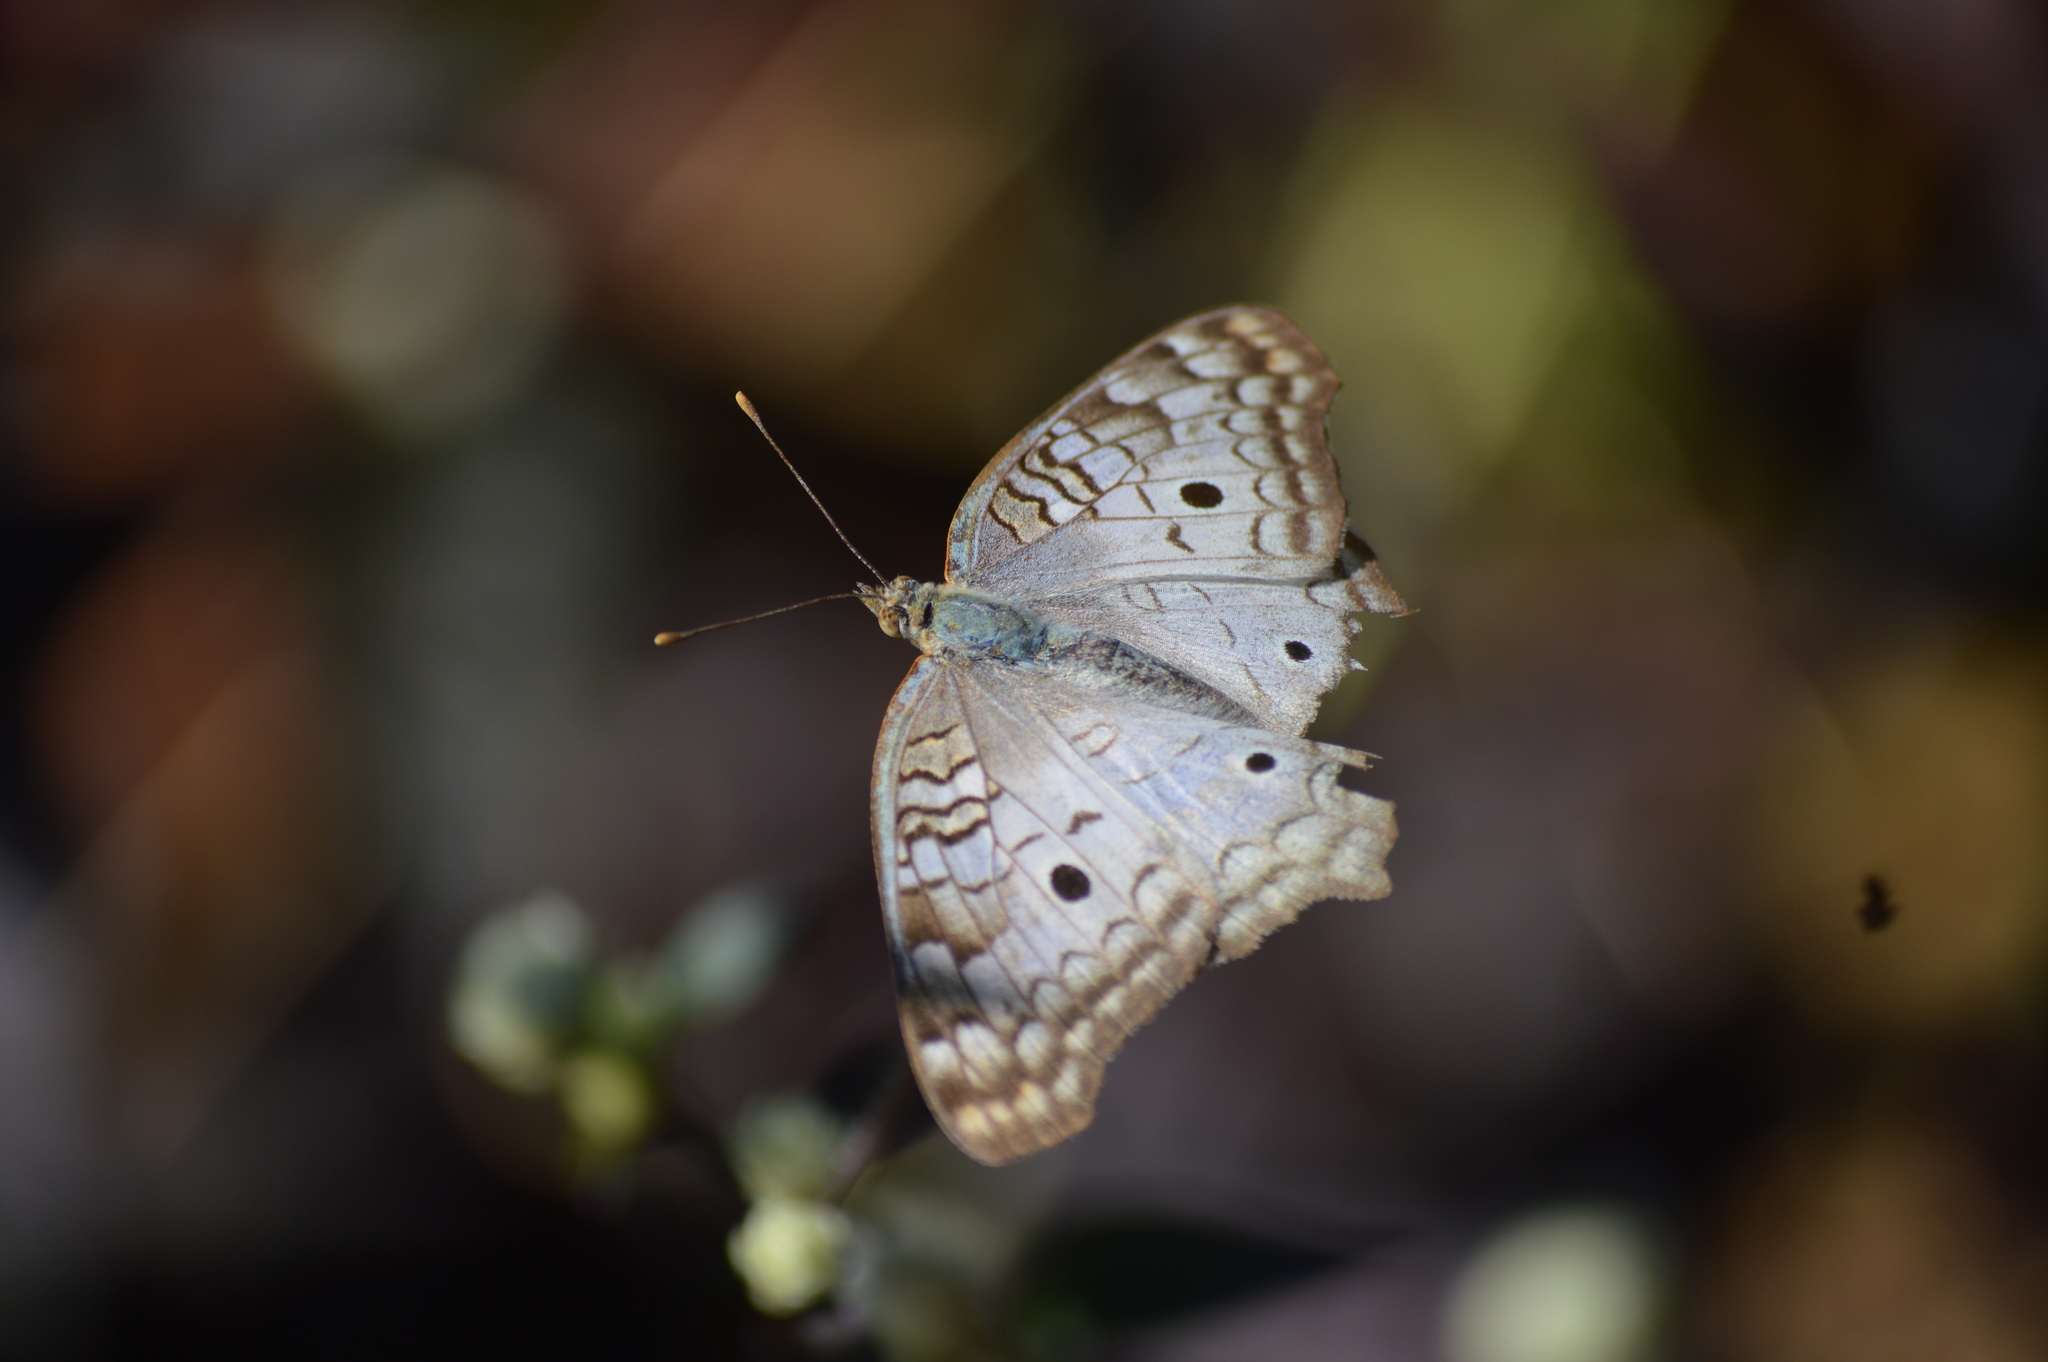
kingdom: Animalia
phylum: Arthropoda
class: Insecta
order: Lepidoptera
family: Nymphalidae
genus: Anartia
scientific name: Anartia jatrophae
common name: White peacock
